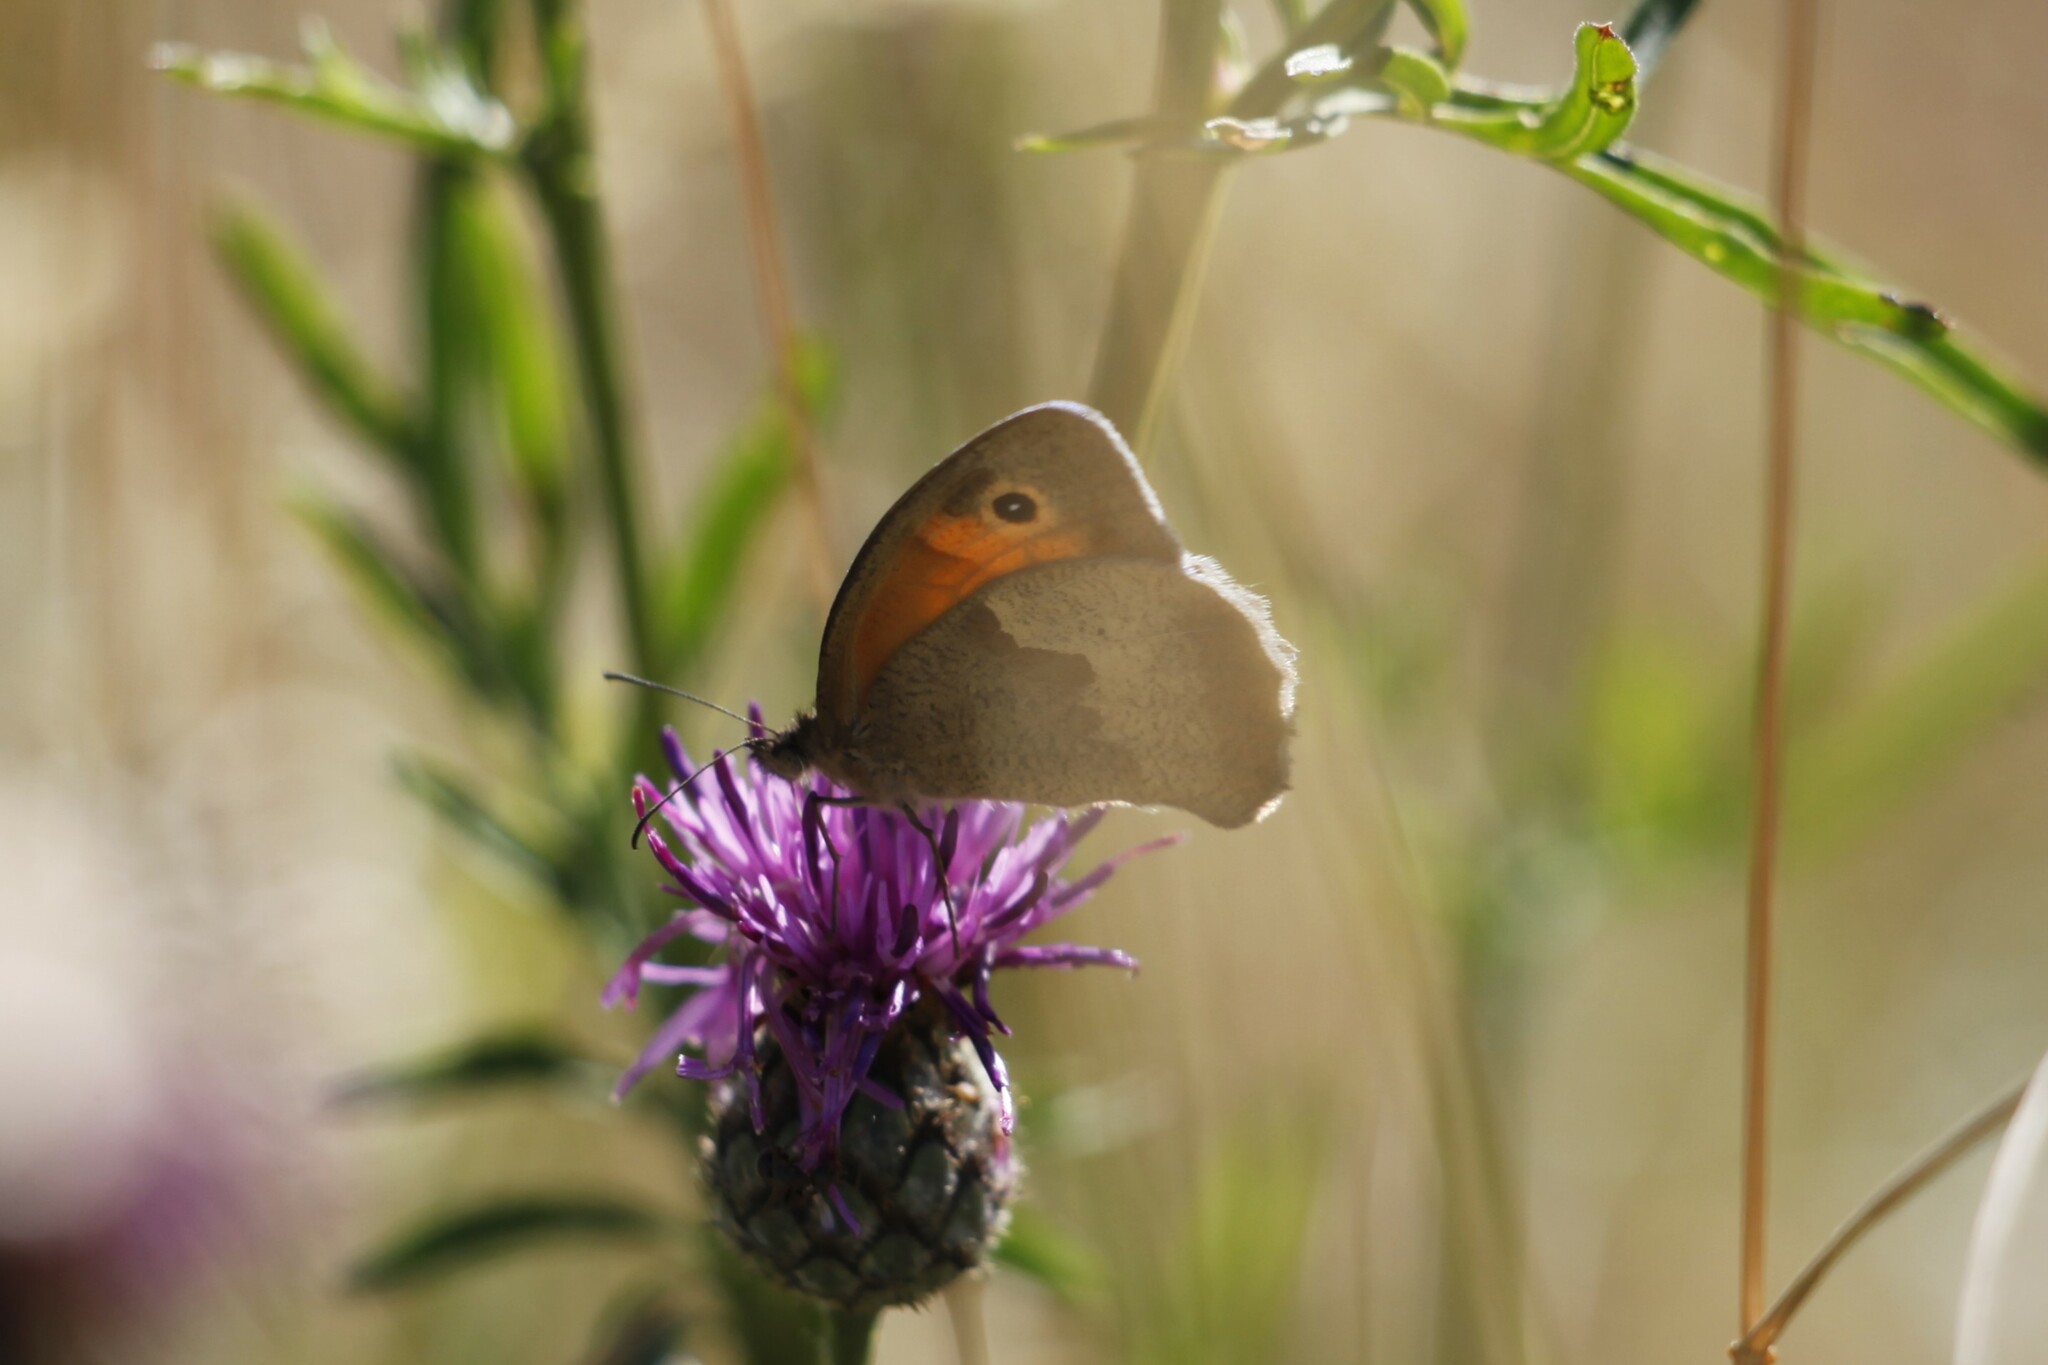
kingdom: Animalia
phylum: Arthropoda
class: Insecta
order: Lepidoptera
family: Nymphalidae
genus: Maniola
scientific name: Maniola jurtina
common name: Meadow brown
